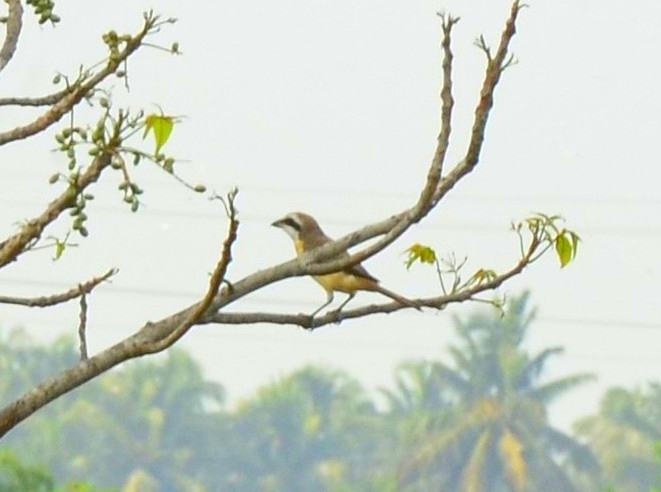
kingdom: Animalia
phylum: Chordata
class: Aves
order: Passeriformes
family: Laniidae
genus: Lanius
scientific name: Lanius cristatus
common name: Brown shrike
